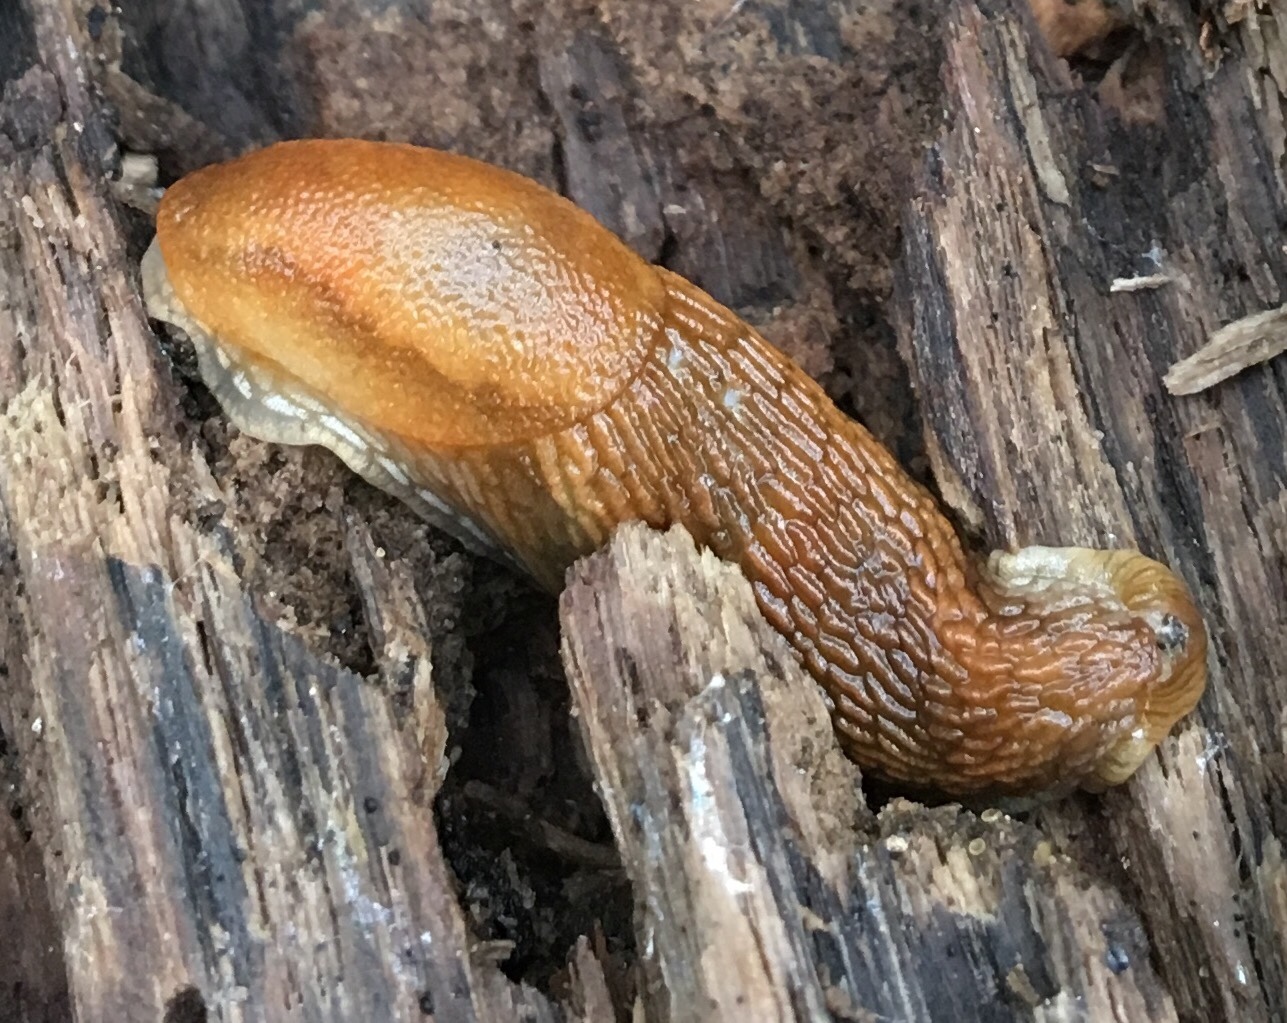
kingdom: Animalia
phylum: Mollusca
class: Gastropoda
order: Stylommatophora
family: Arionidae
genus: Arion
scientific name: Arion subfuscus
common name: Dusky arion
